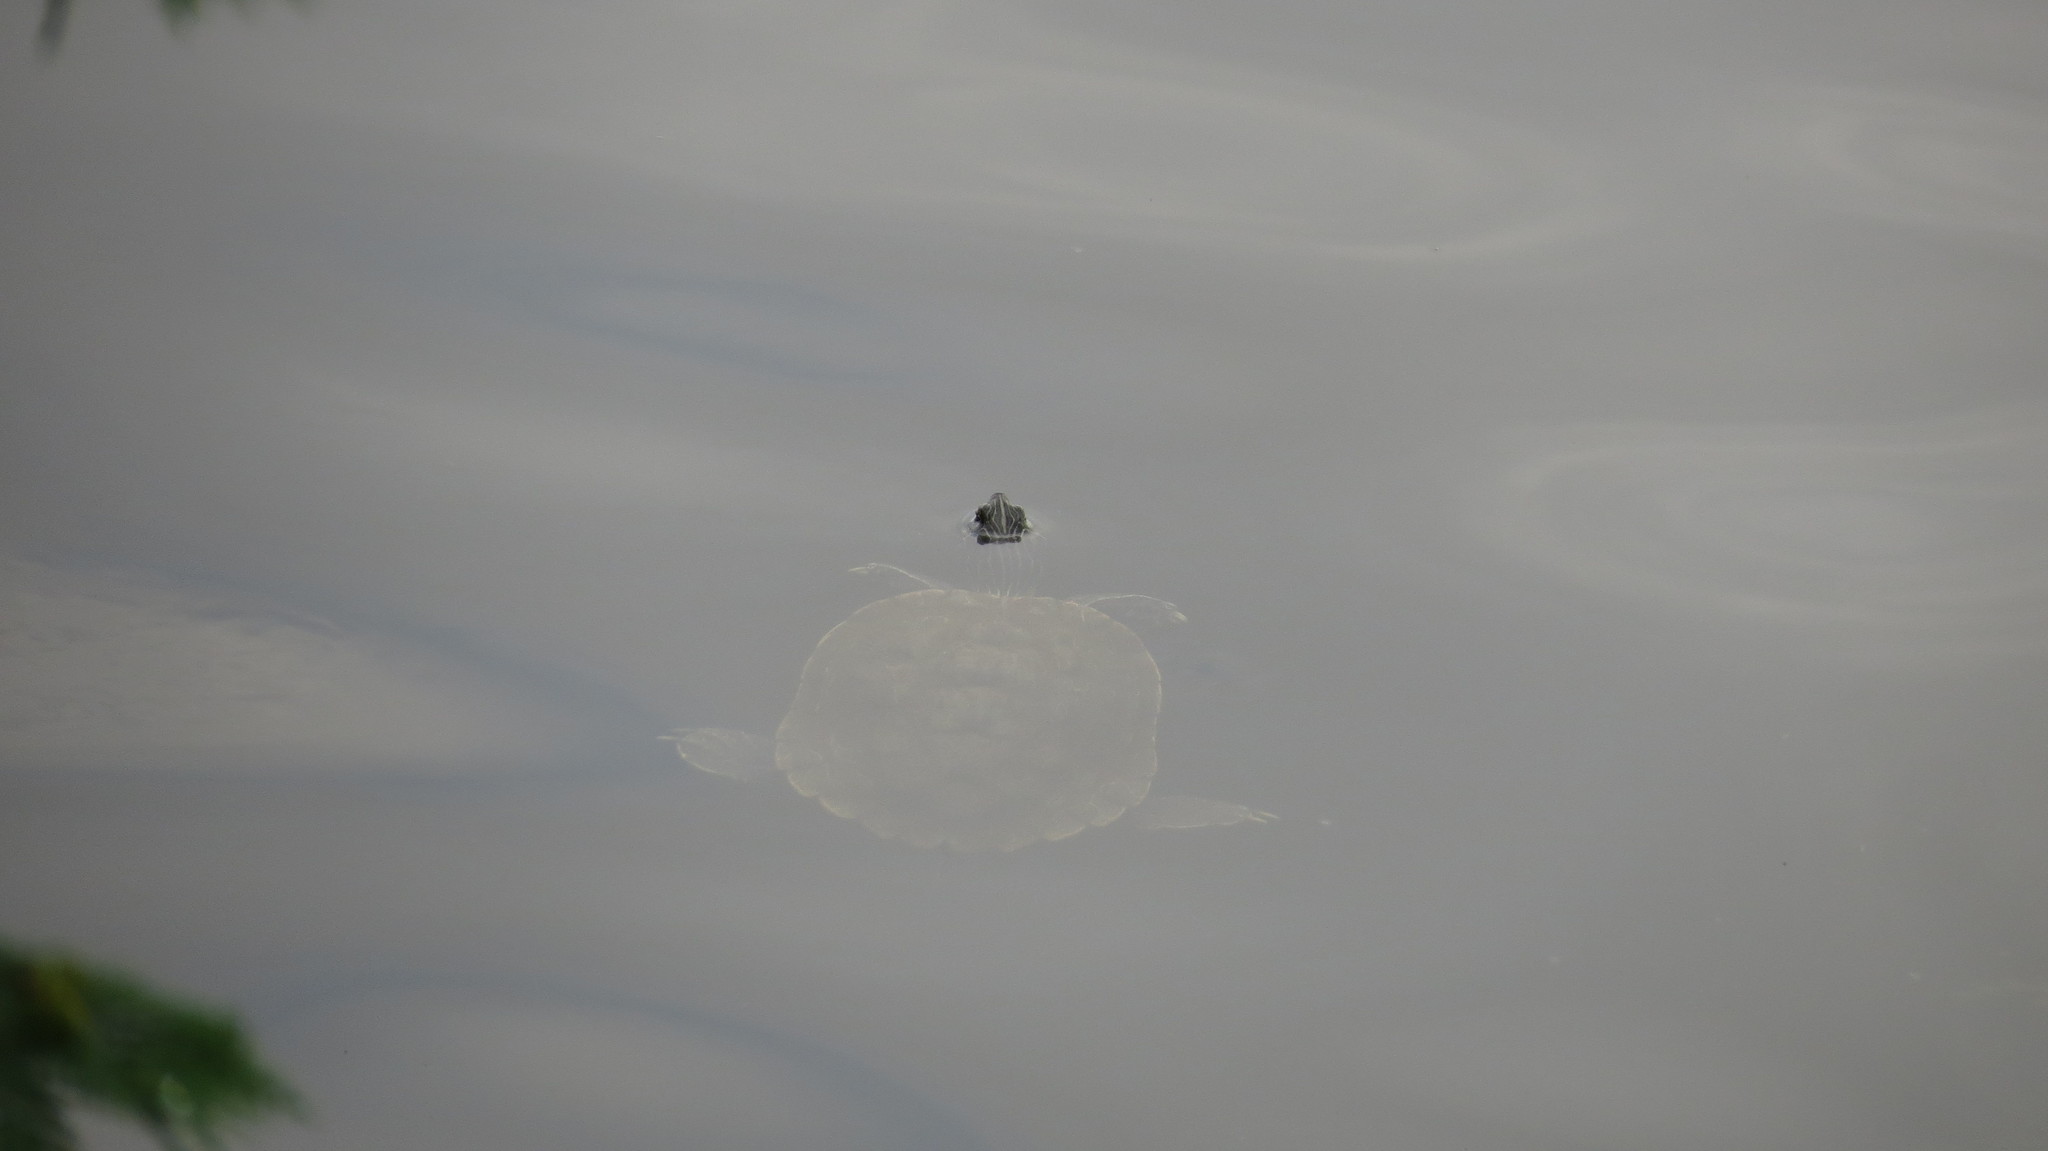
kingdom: Animalia
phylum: Chordata
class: Testudines
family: Emydidae
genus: Graptemys
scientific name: Graptemys geographica
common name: Common map turtle
